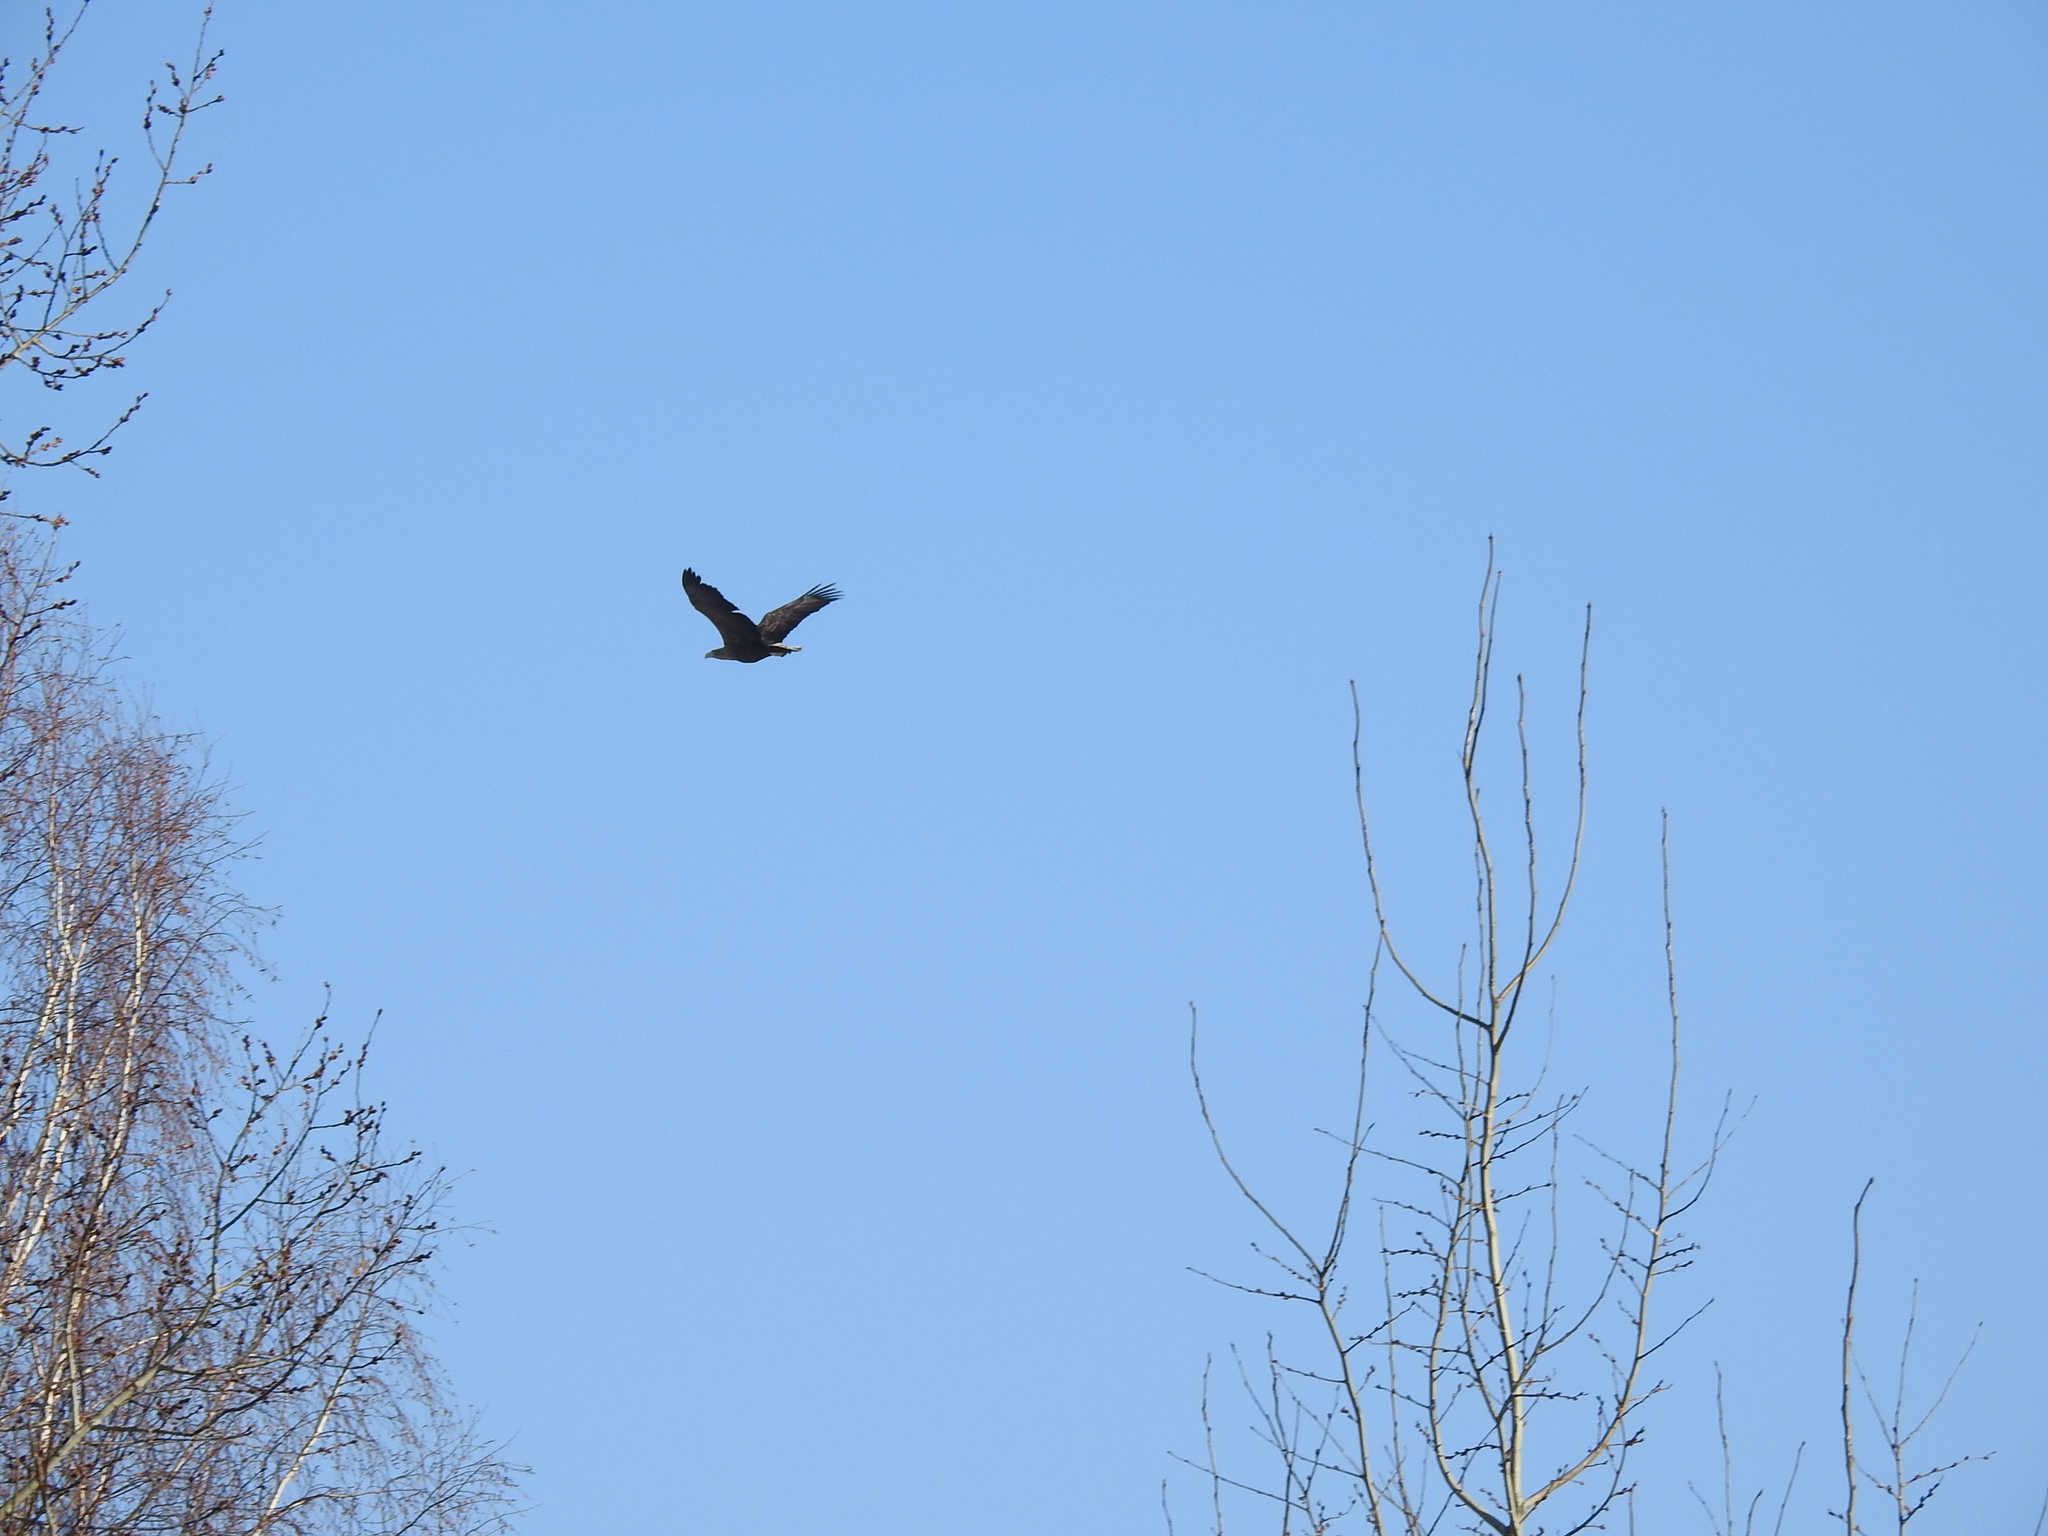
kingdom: Animalia
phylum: Chordata
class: Aves
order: Accipitriformes
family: Accipitridae
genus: Haliaeetus
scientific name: Haliaeetus albicilla
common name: White-tailed eagle
